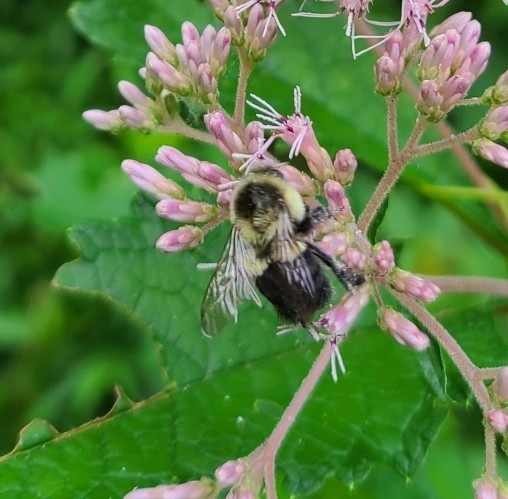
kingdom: Animalia
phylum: Arthropoda
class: Insecta
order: Hymenoptera
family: Apidae
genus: Bombus
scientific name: Bombus impatiens
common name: Common eastern bumble bee
